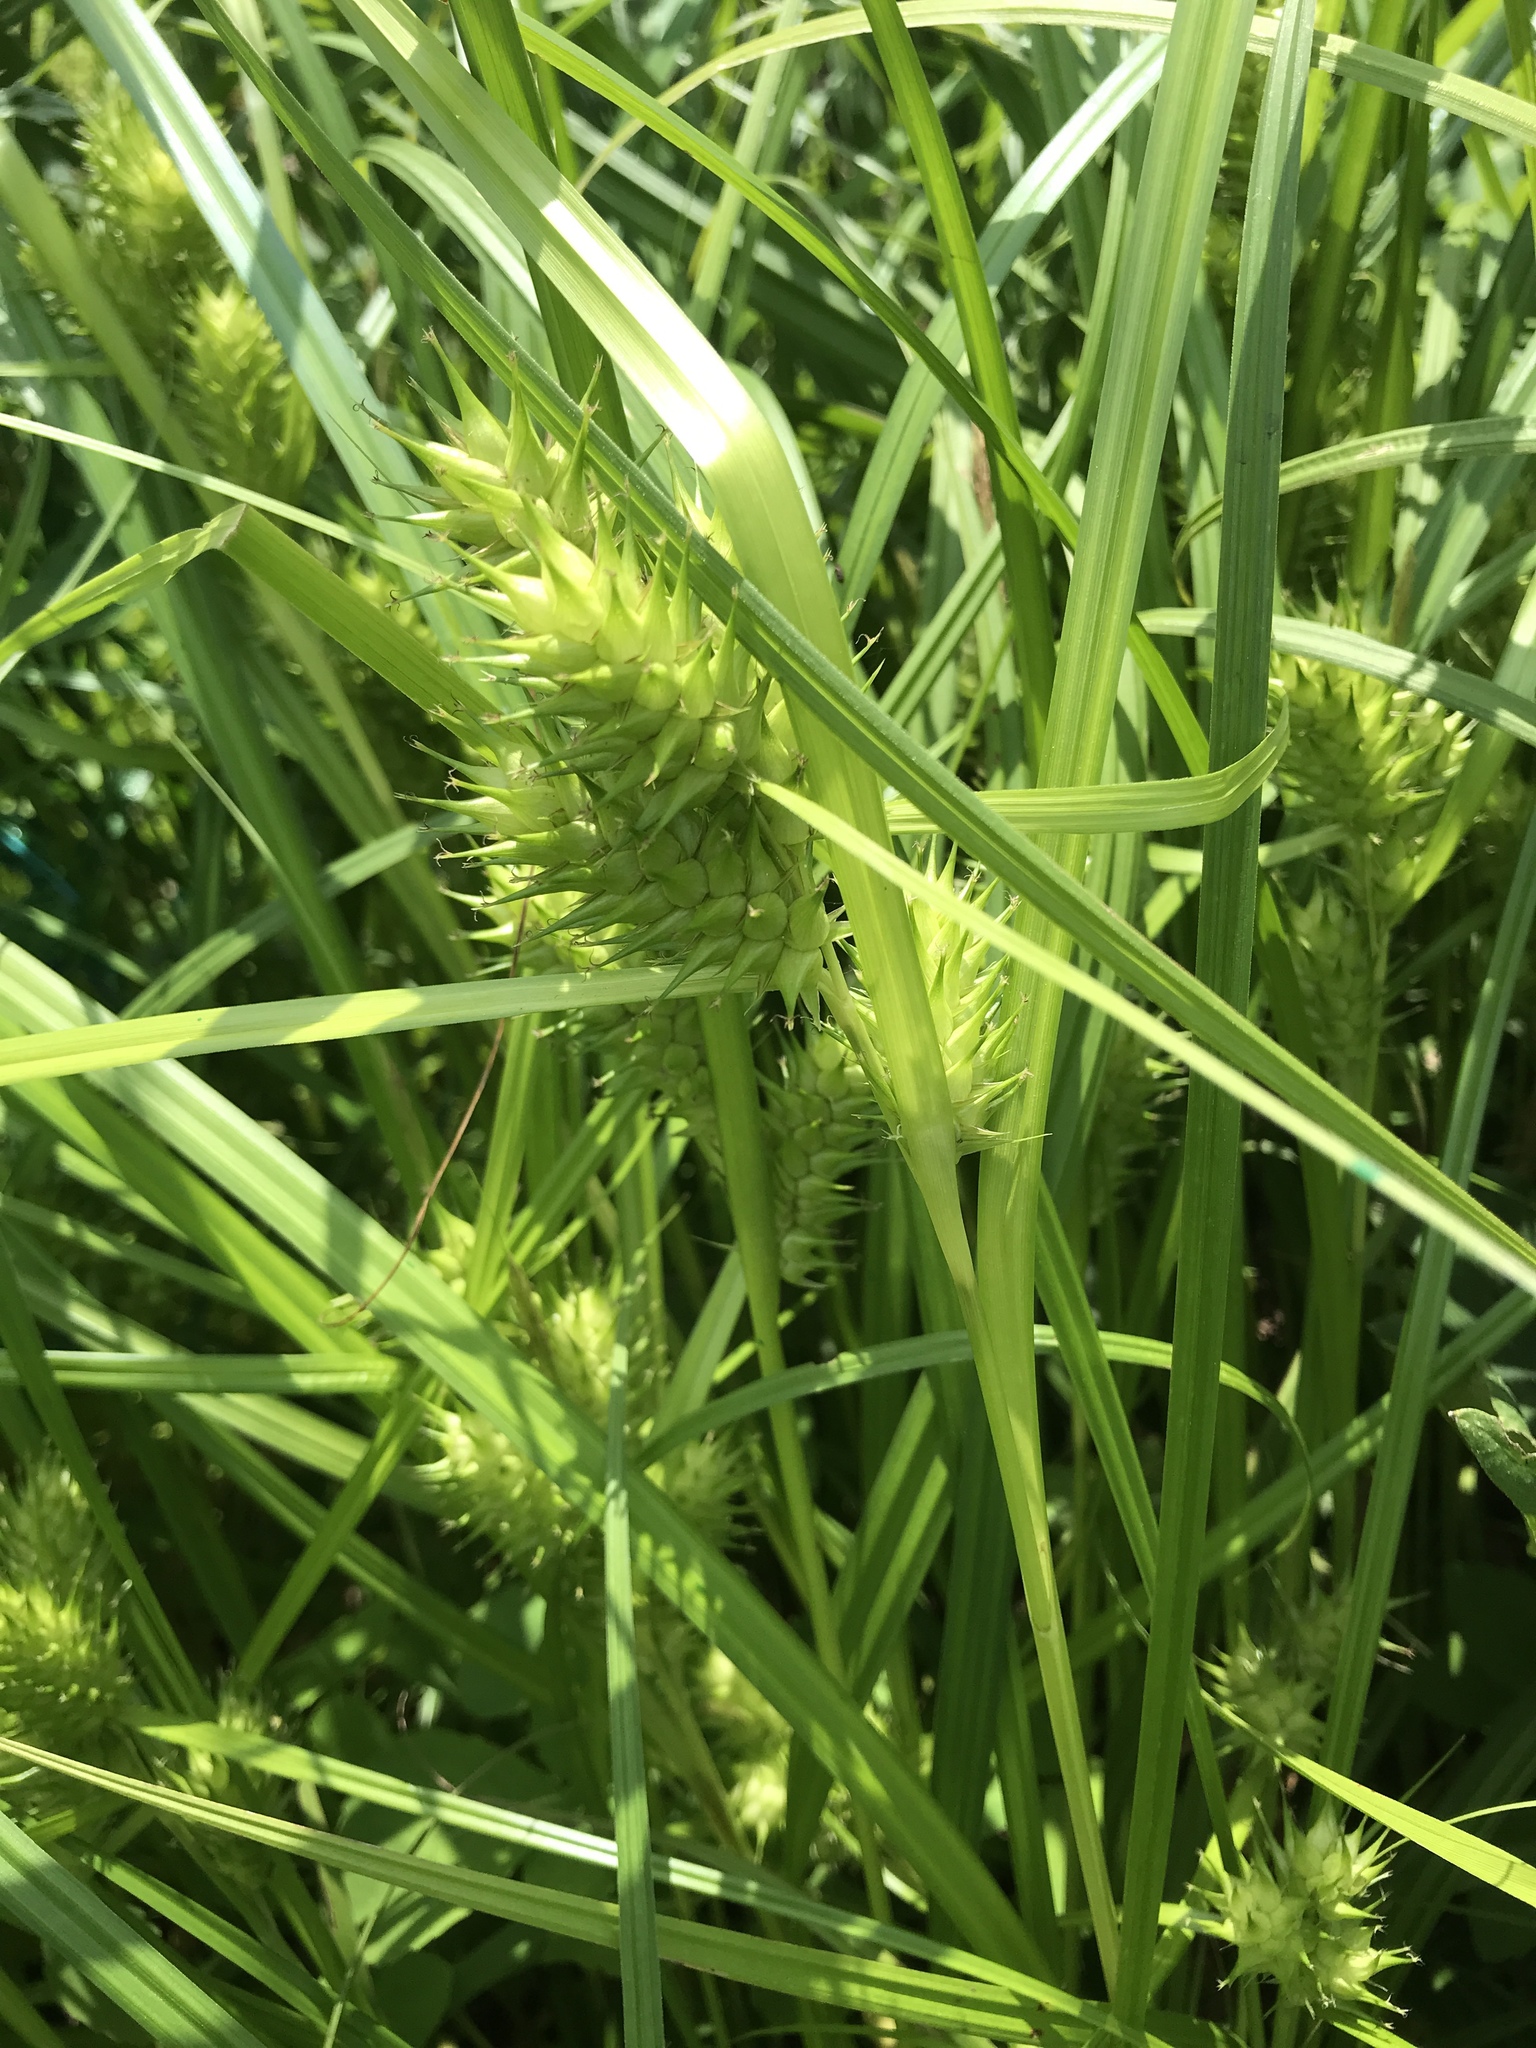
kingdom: Plantae
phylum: Tracheophyta
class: Liliopsida
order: Poales
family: Cyperaceae
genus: Carex
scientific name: Carex lupulina
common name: Hop sedge
